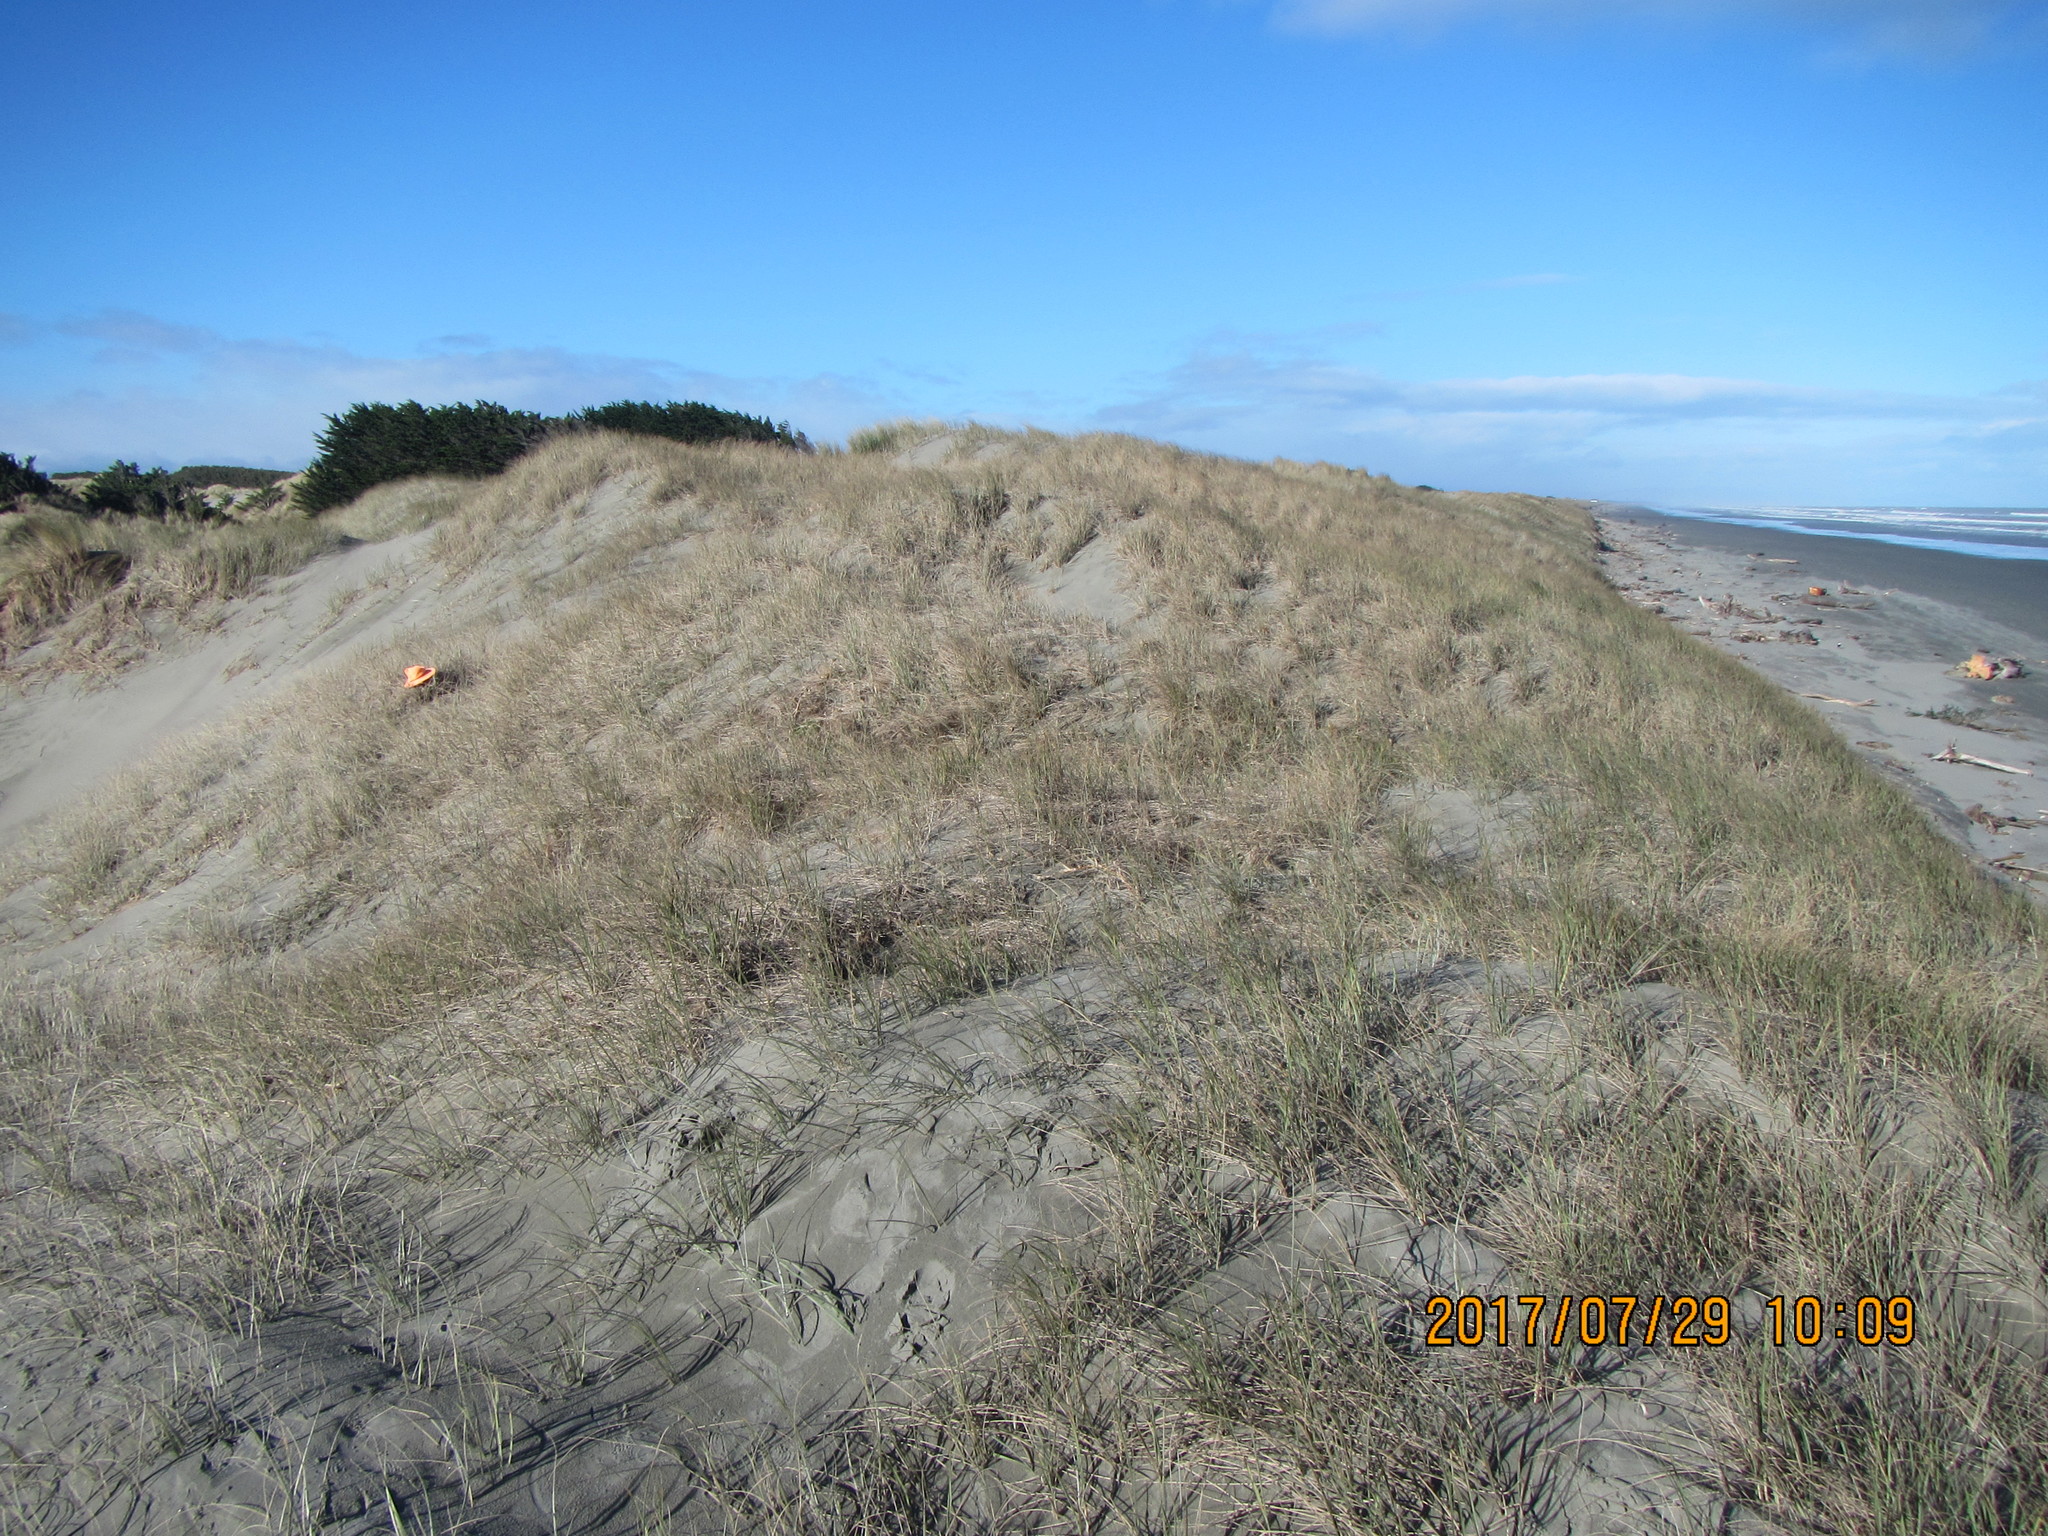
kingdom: Animalia
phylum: Arthropoda
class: Arachnida
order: Araneae
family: Gnaphosidae
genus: Anzacia
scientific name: Anzacia gemmea
